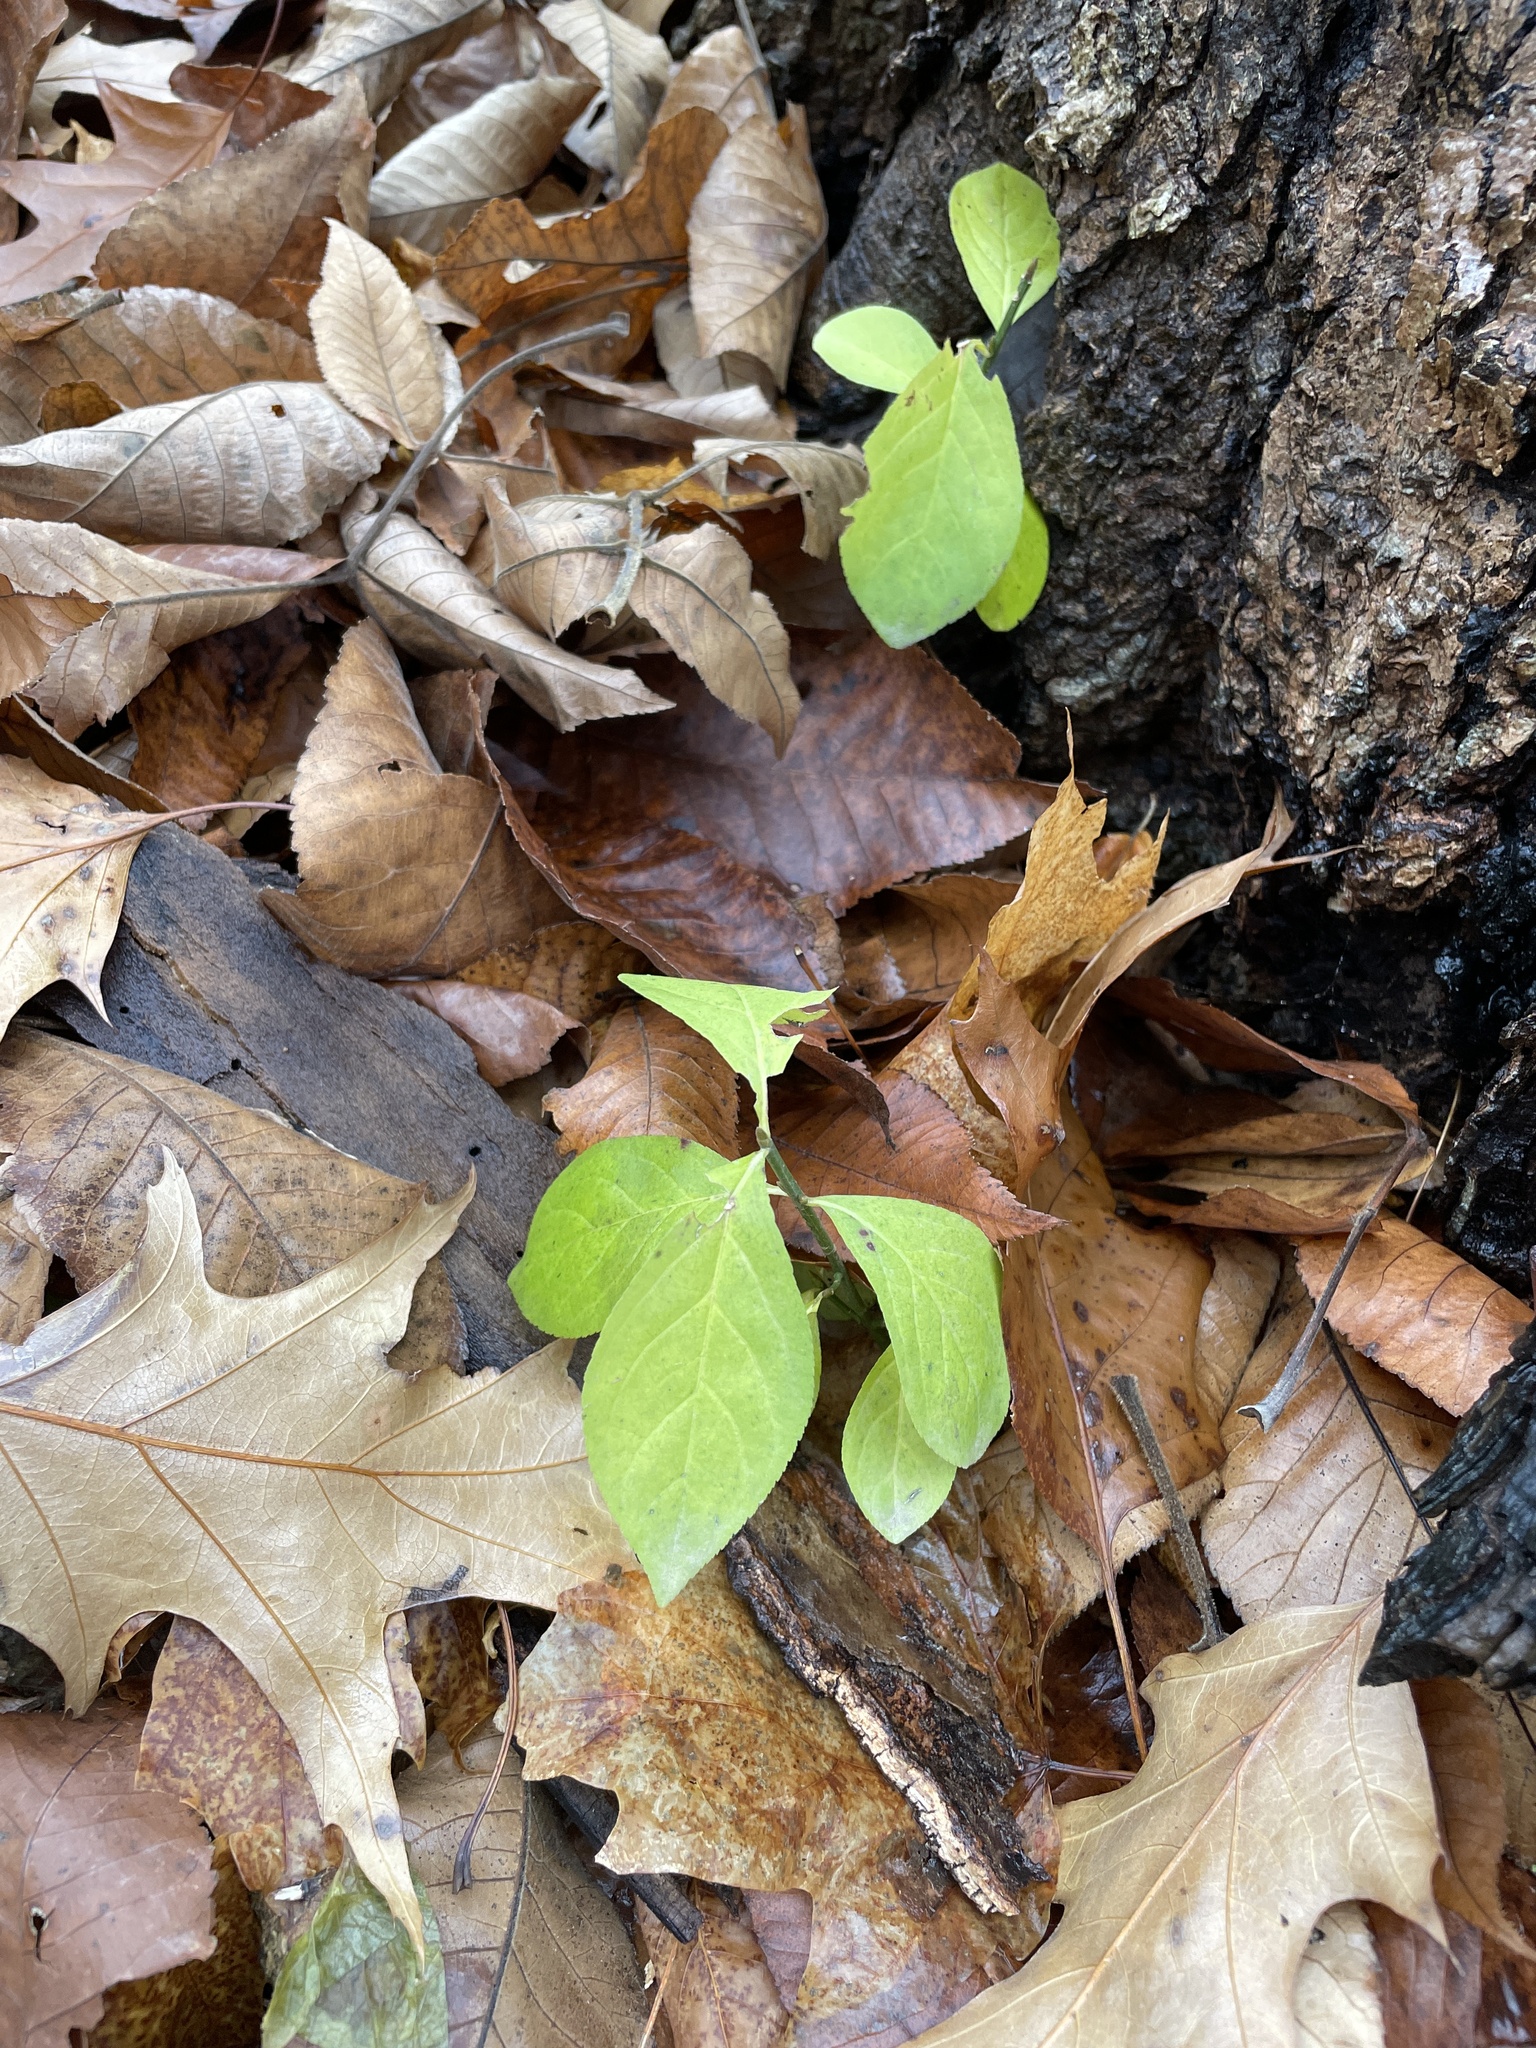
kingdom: Plantae
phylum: Tracheophyta
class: Magnoliopsida
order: Celastrales
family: Celastraceae
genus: Euonymus
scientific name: Euonymus obovatus
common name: Running strawberry-bush
